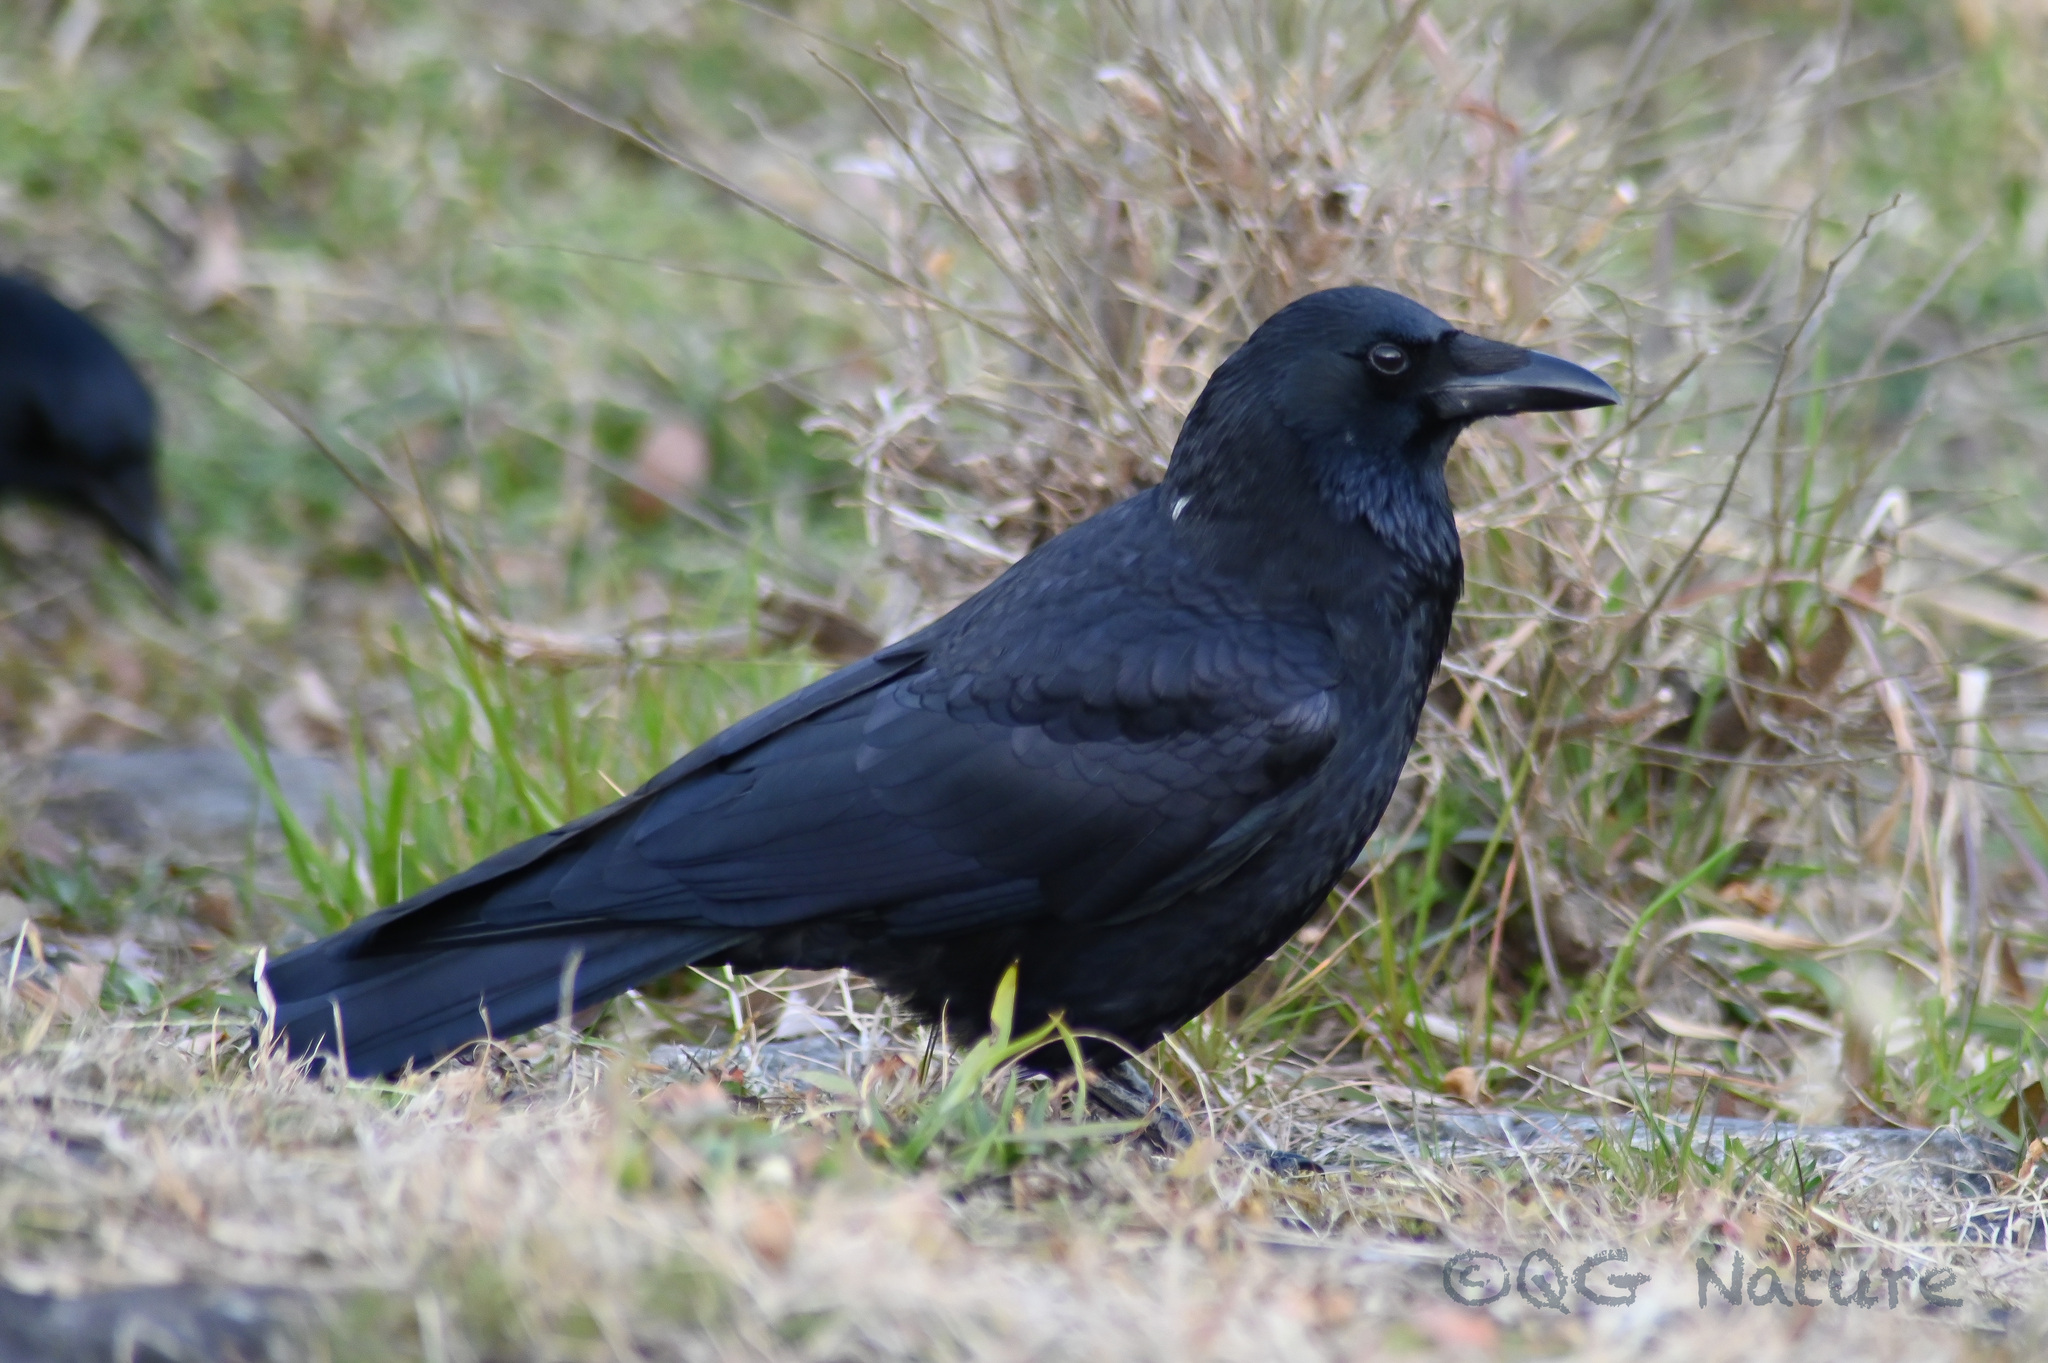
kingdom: Animalia
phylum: Chordata
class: Aves
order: Passeriformes
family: Corvidae
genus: Corvus
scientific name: Corvus corone
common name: Carrion crow
